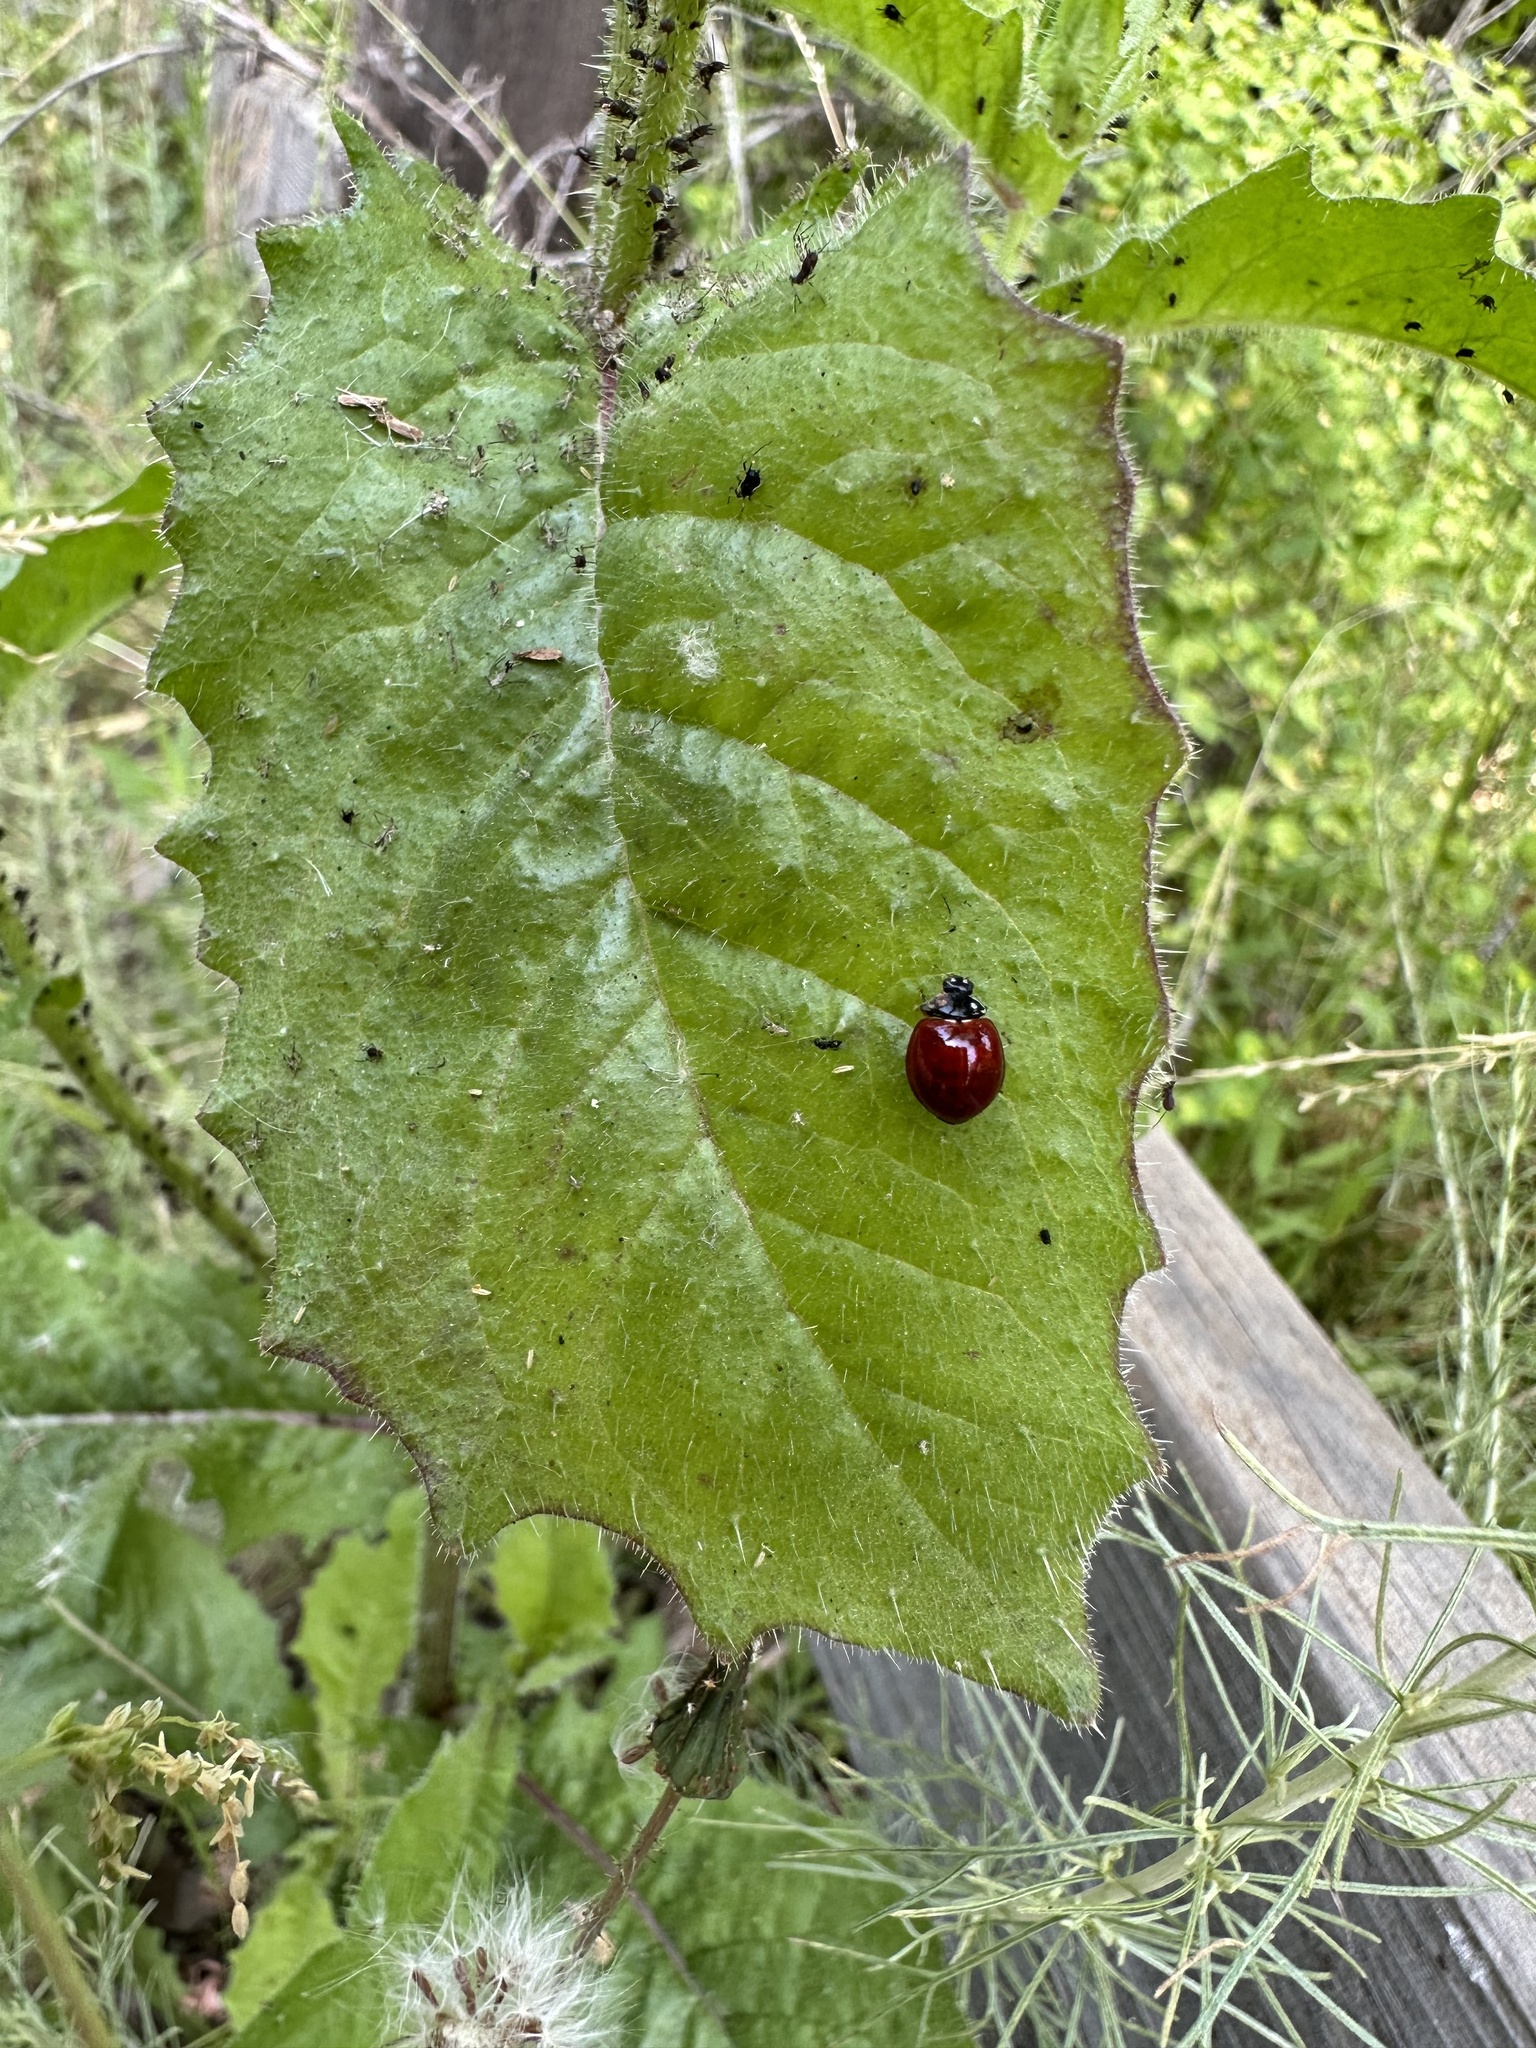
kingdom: Animalia
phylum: Arthropoda
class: Insecta
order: Coleoptera
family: Coccinellidae
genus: Cycloneda
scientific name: Cycloneda sanguinea
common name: Ladybird beetle
